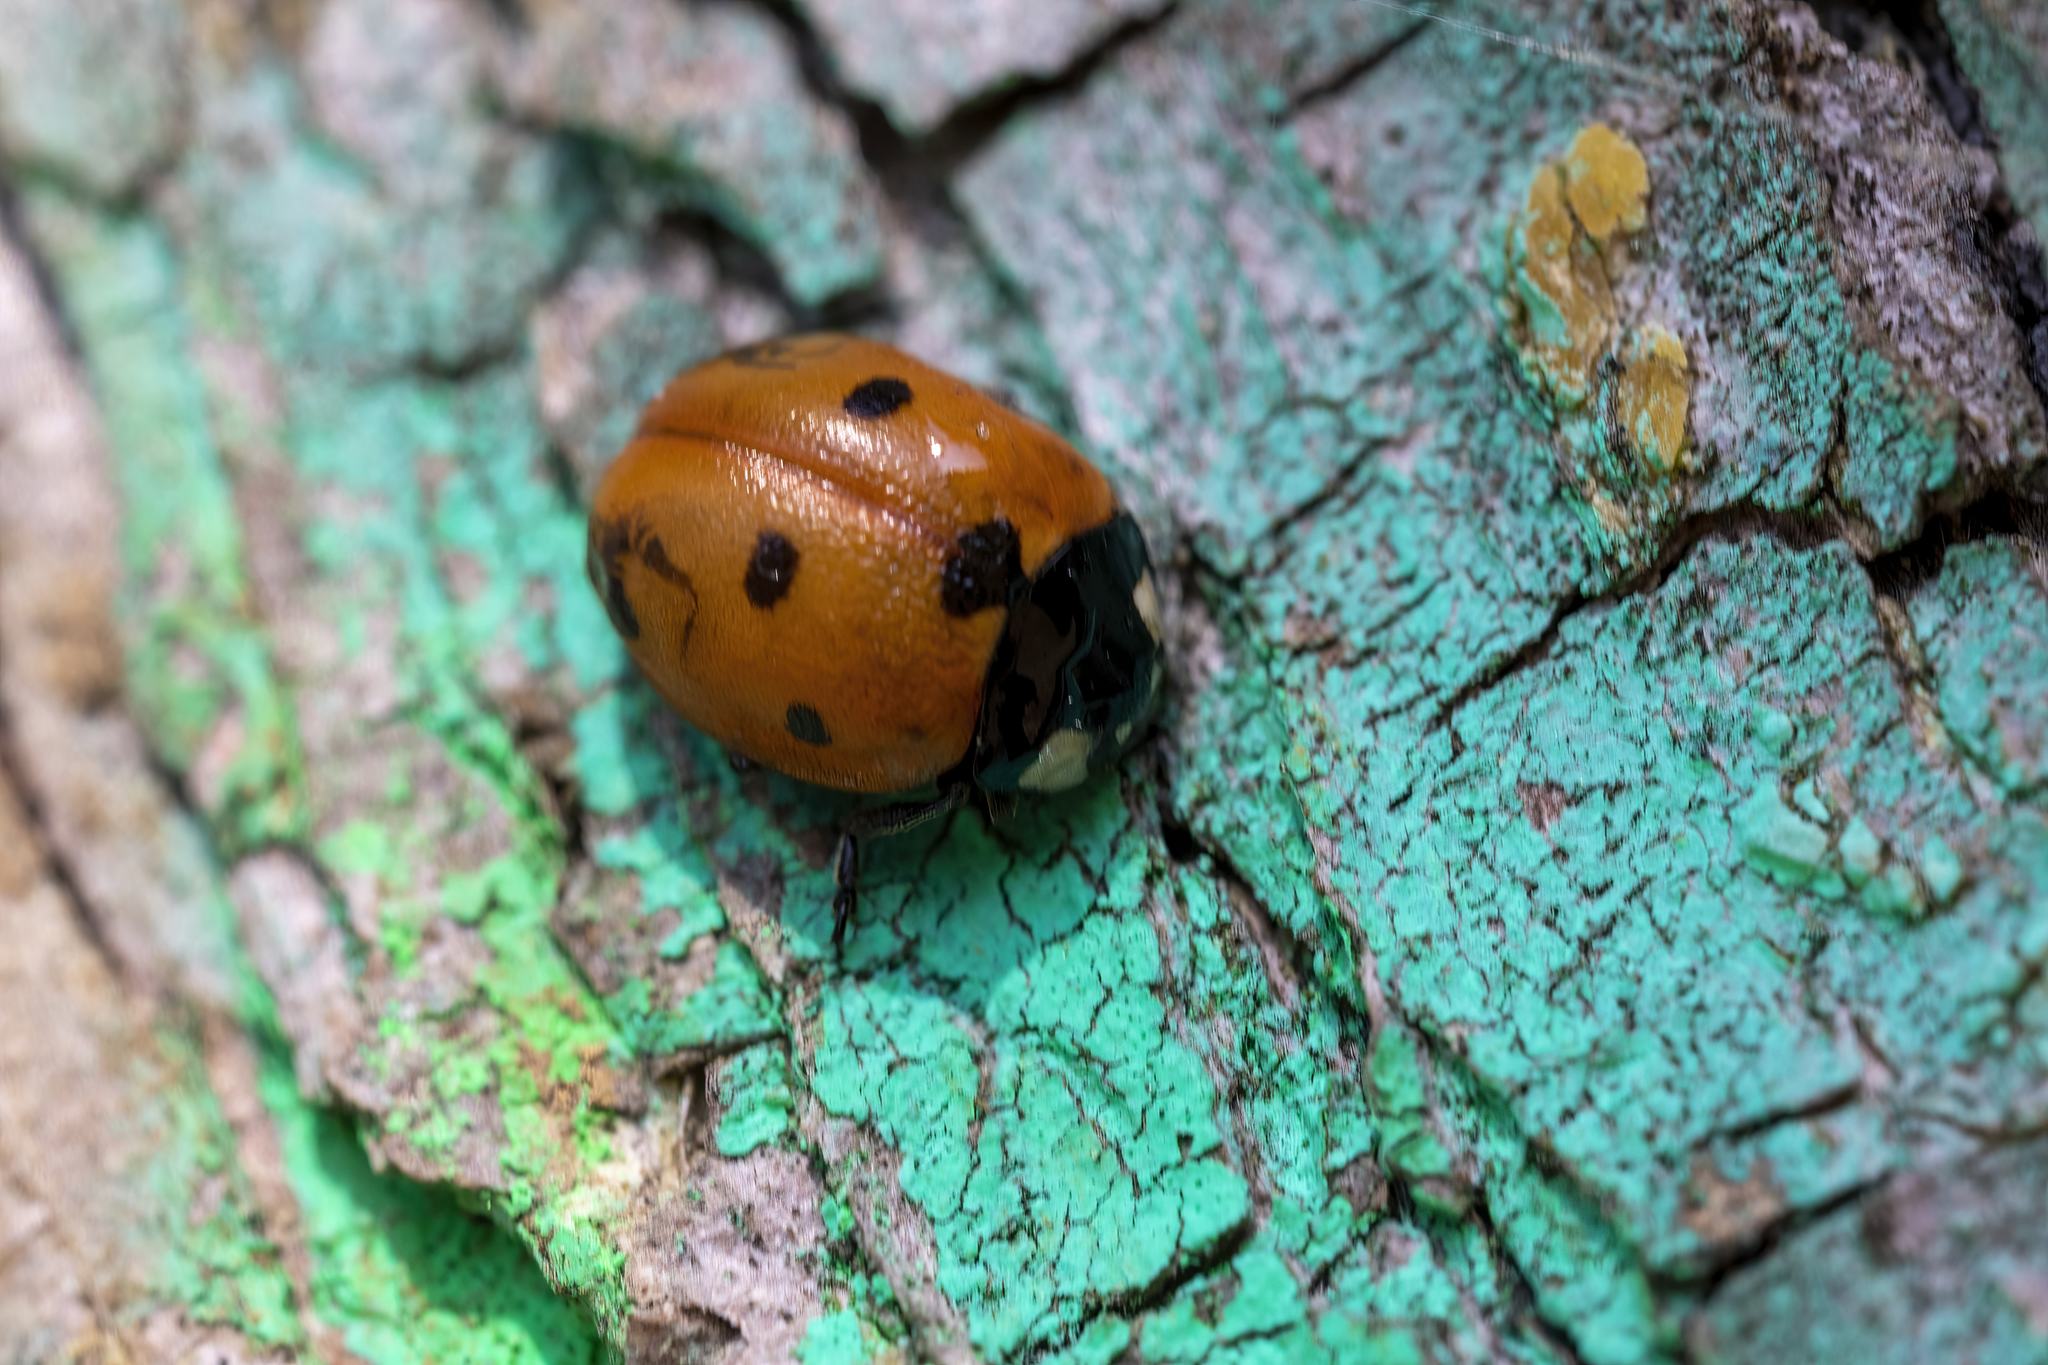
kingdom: Animalia
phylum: Arthropoda
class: Insecta
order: Coleoptera
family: Coccinellidae
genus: Coccinella
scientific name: Coccinella septempunctata
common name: Sevenspotted lady beetle
